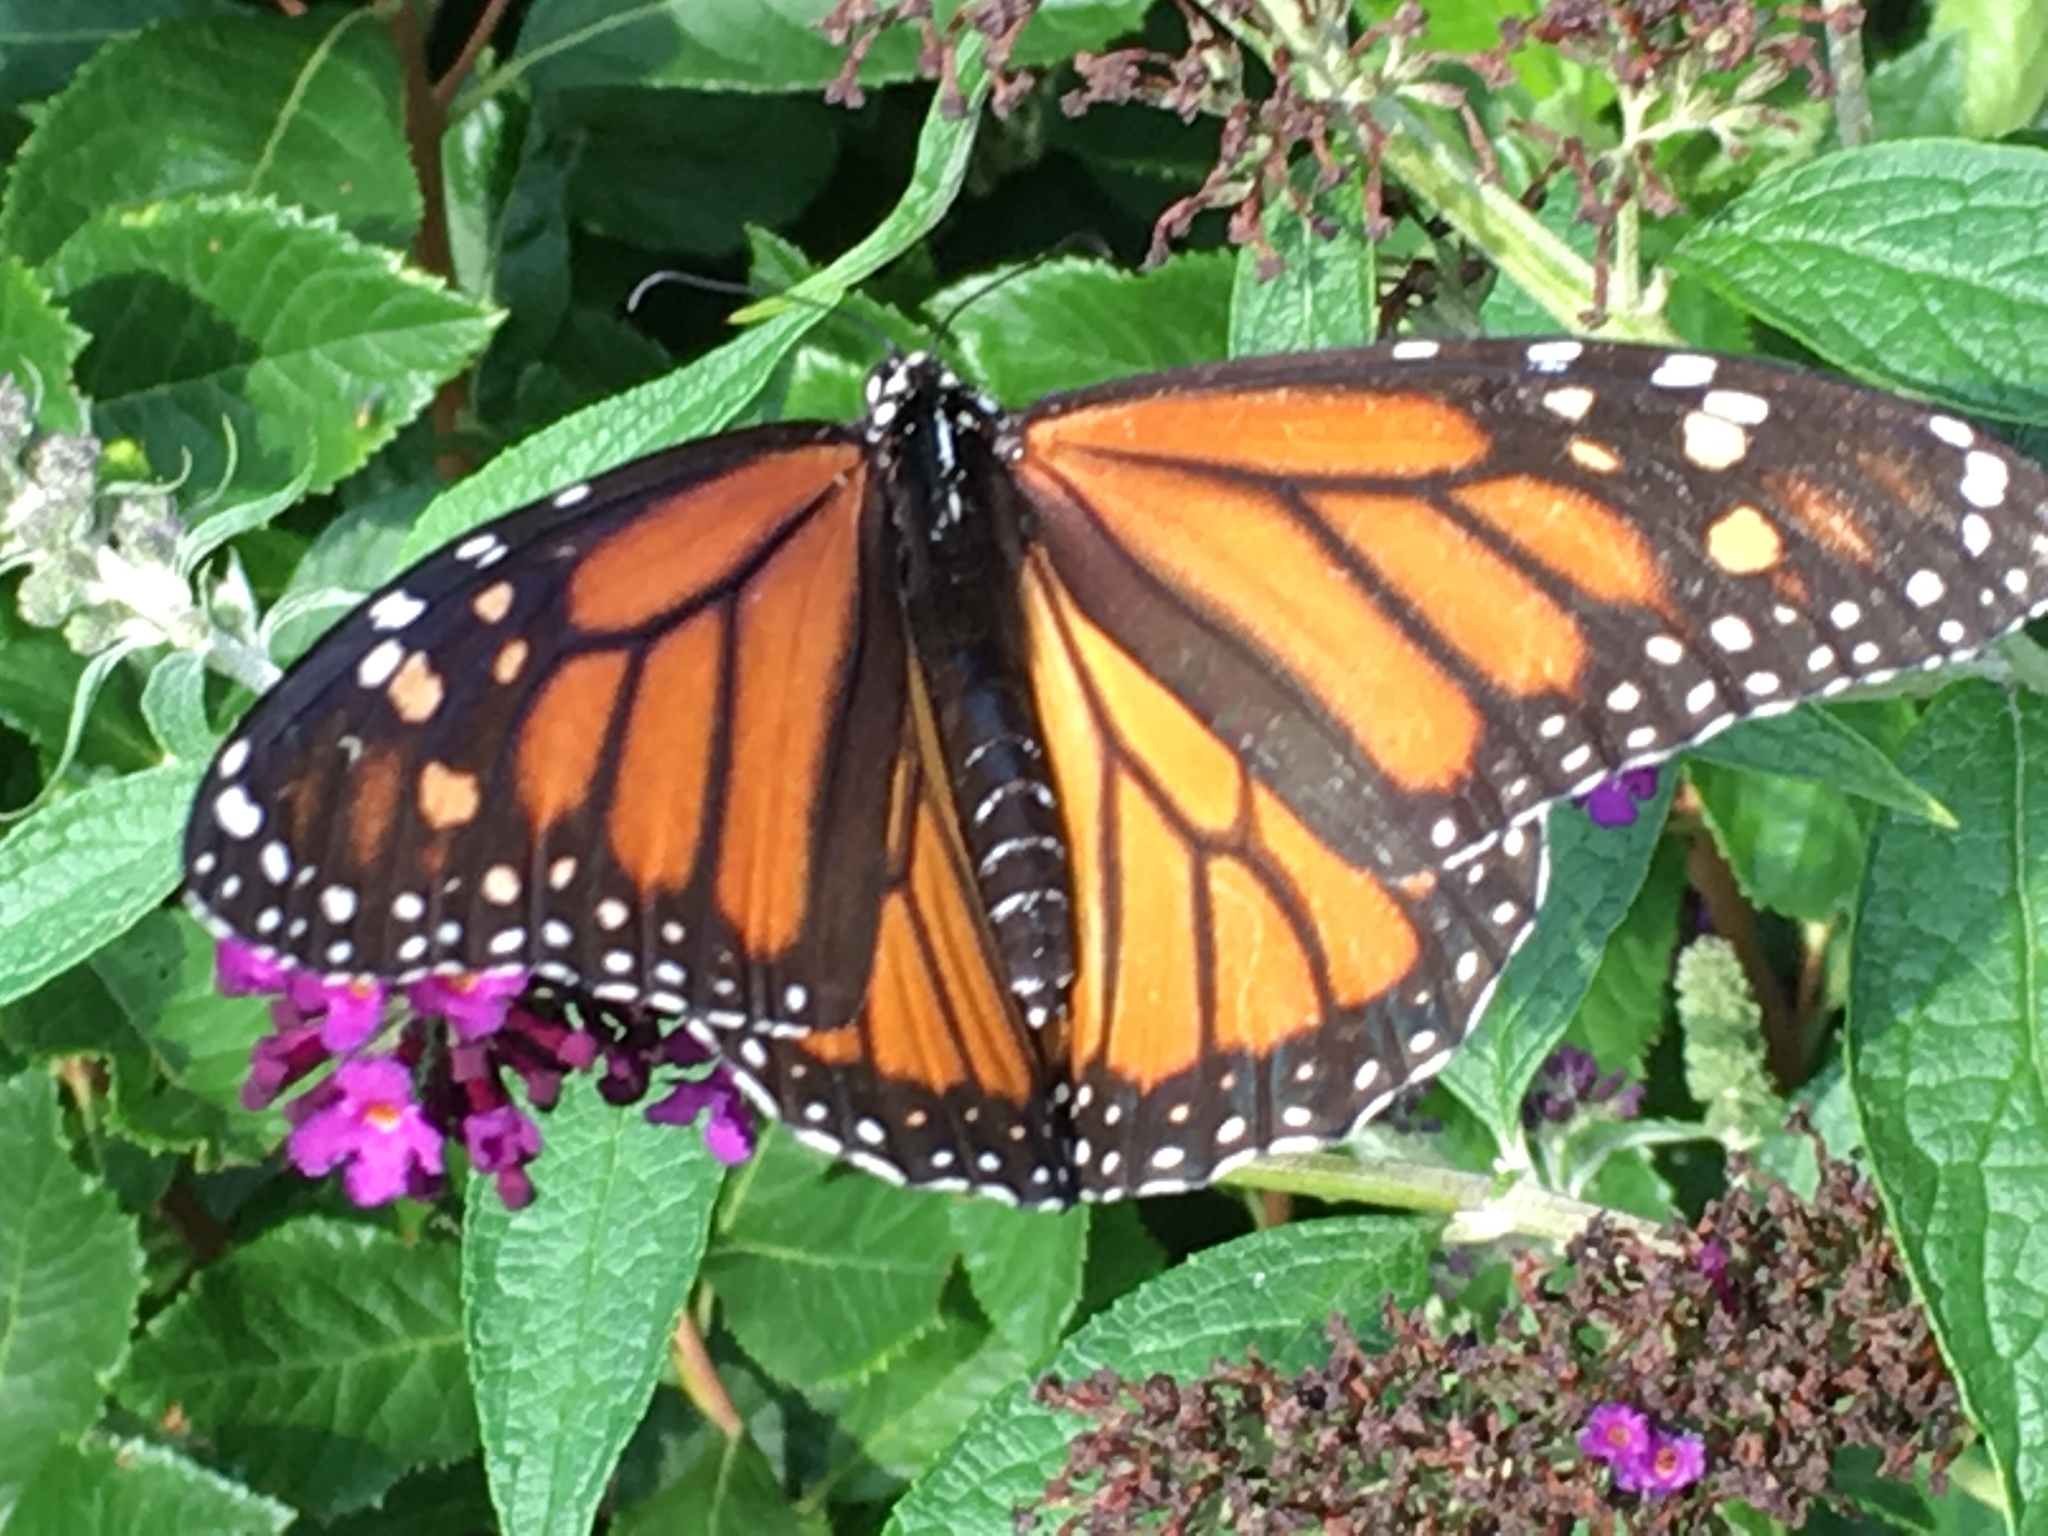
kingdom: Animalia
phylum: Arthropoda
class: Insecta
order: Lepidoptera
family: Nymphalidae
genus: Danaus
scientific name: Danaus plexippus
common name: Monarch
